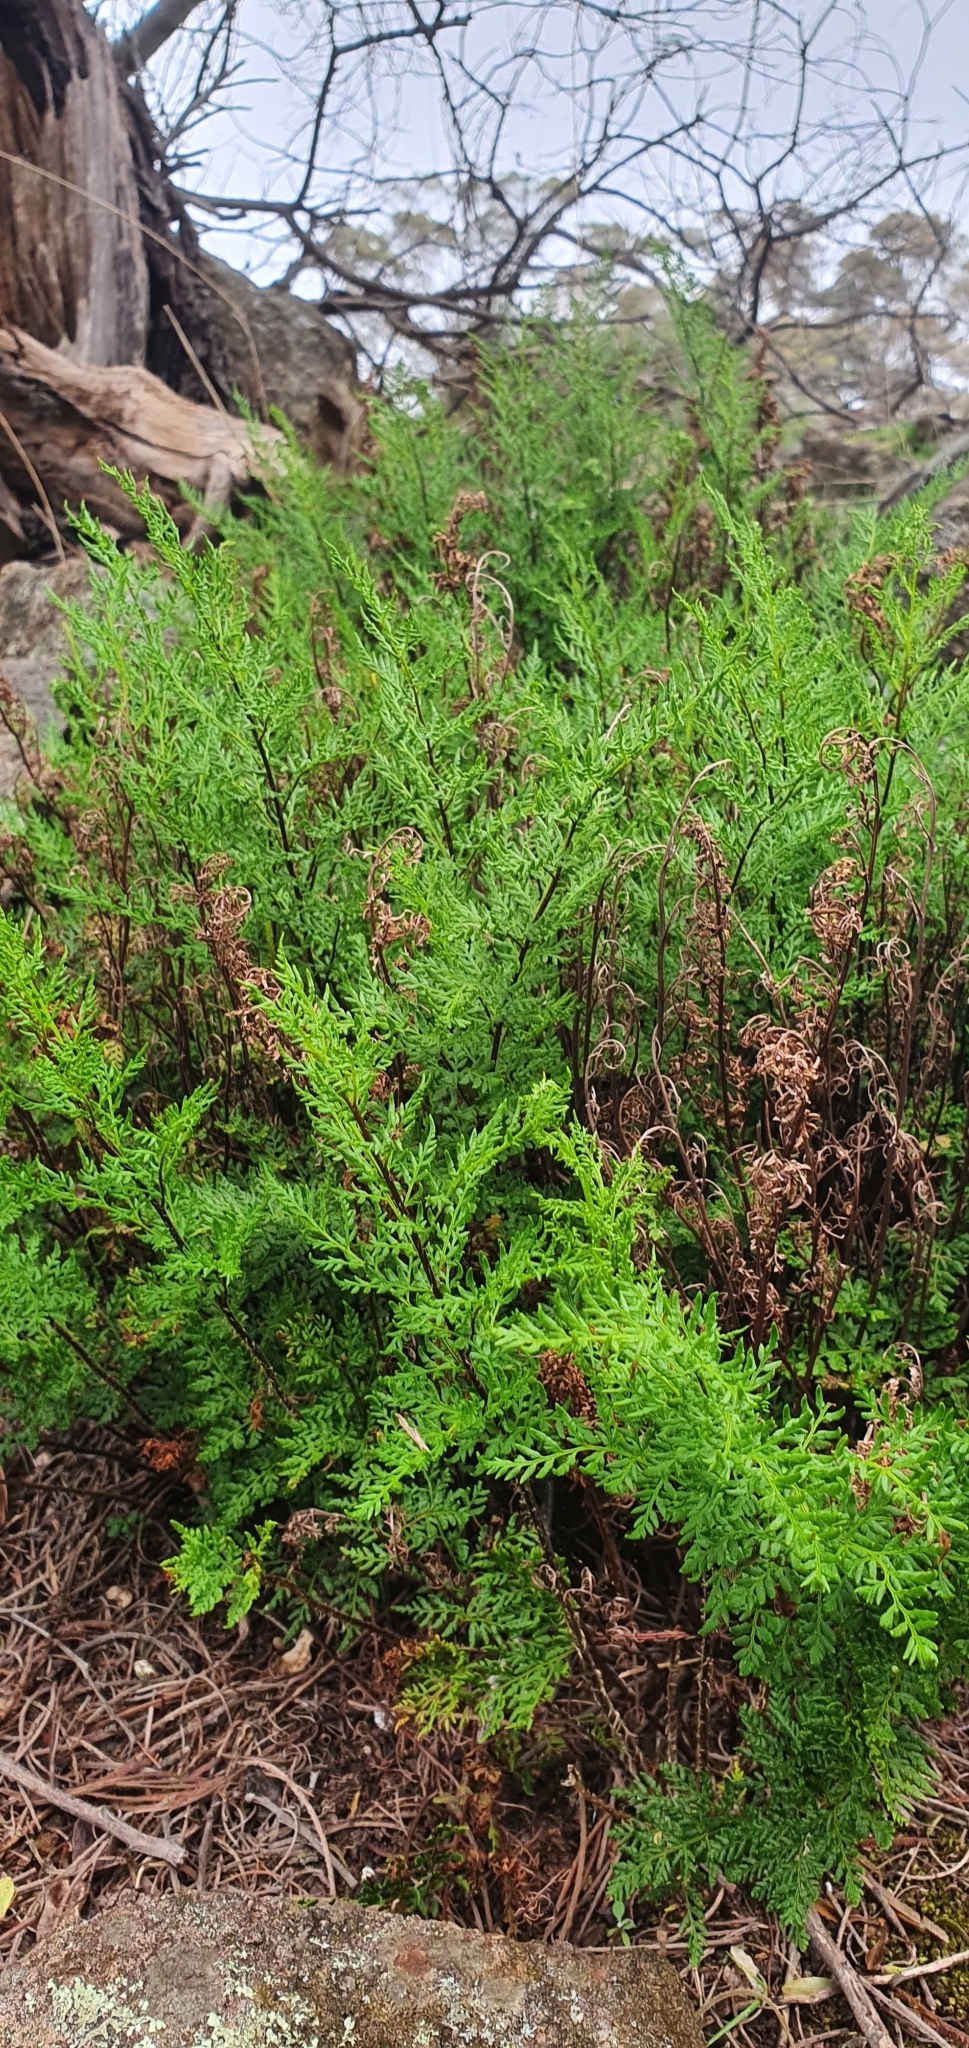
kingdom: Plantae
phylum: Tracheophyta
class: Polypodiopsida
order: Polypodiales
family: Pteridaceae
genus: Cheilanthes
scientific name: Cheilanthes austrotenuifolia
